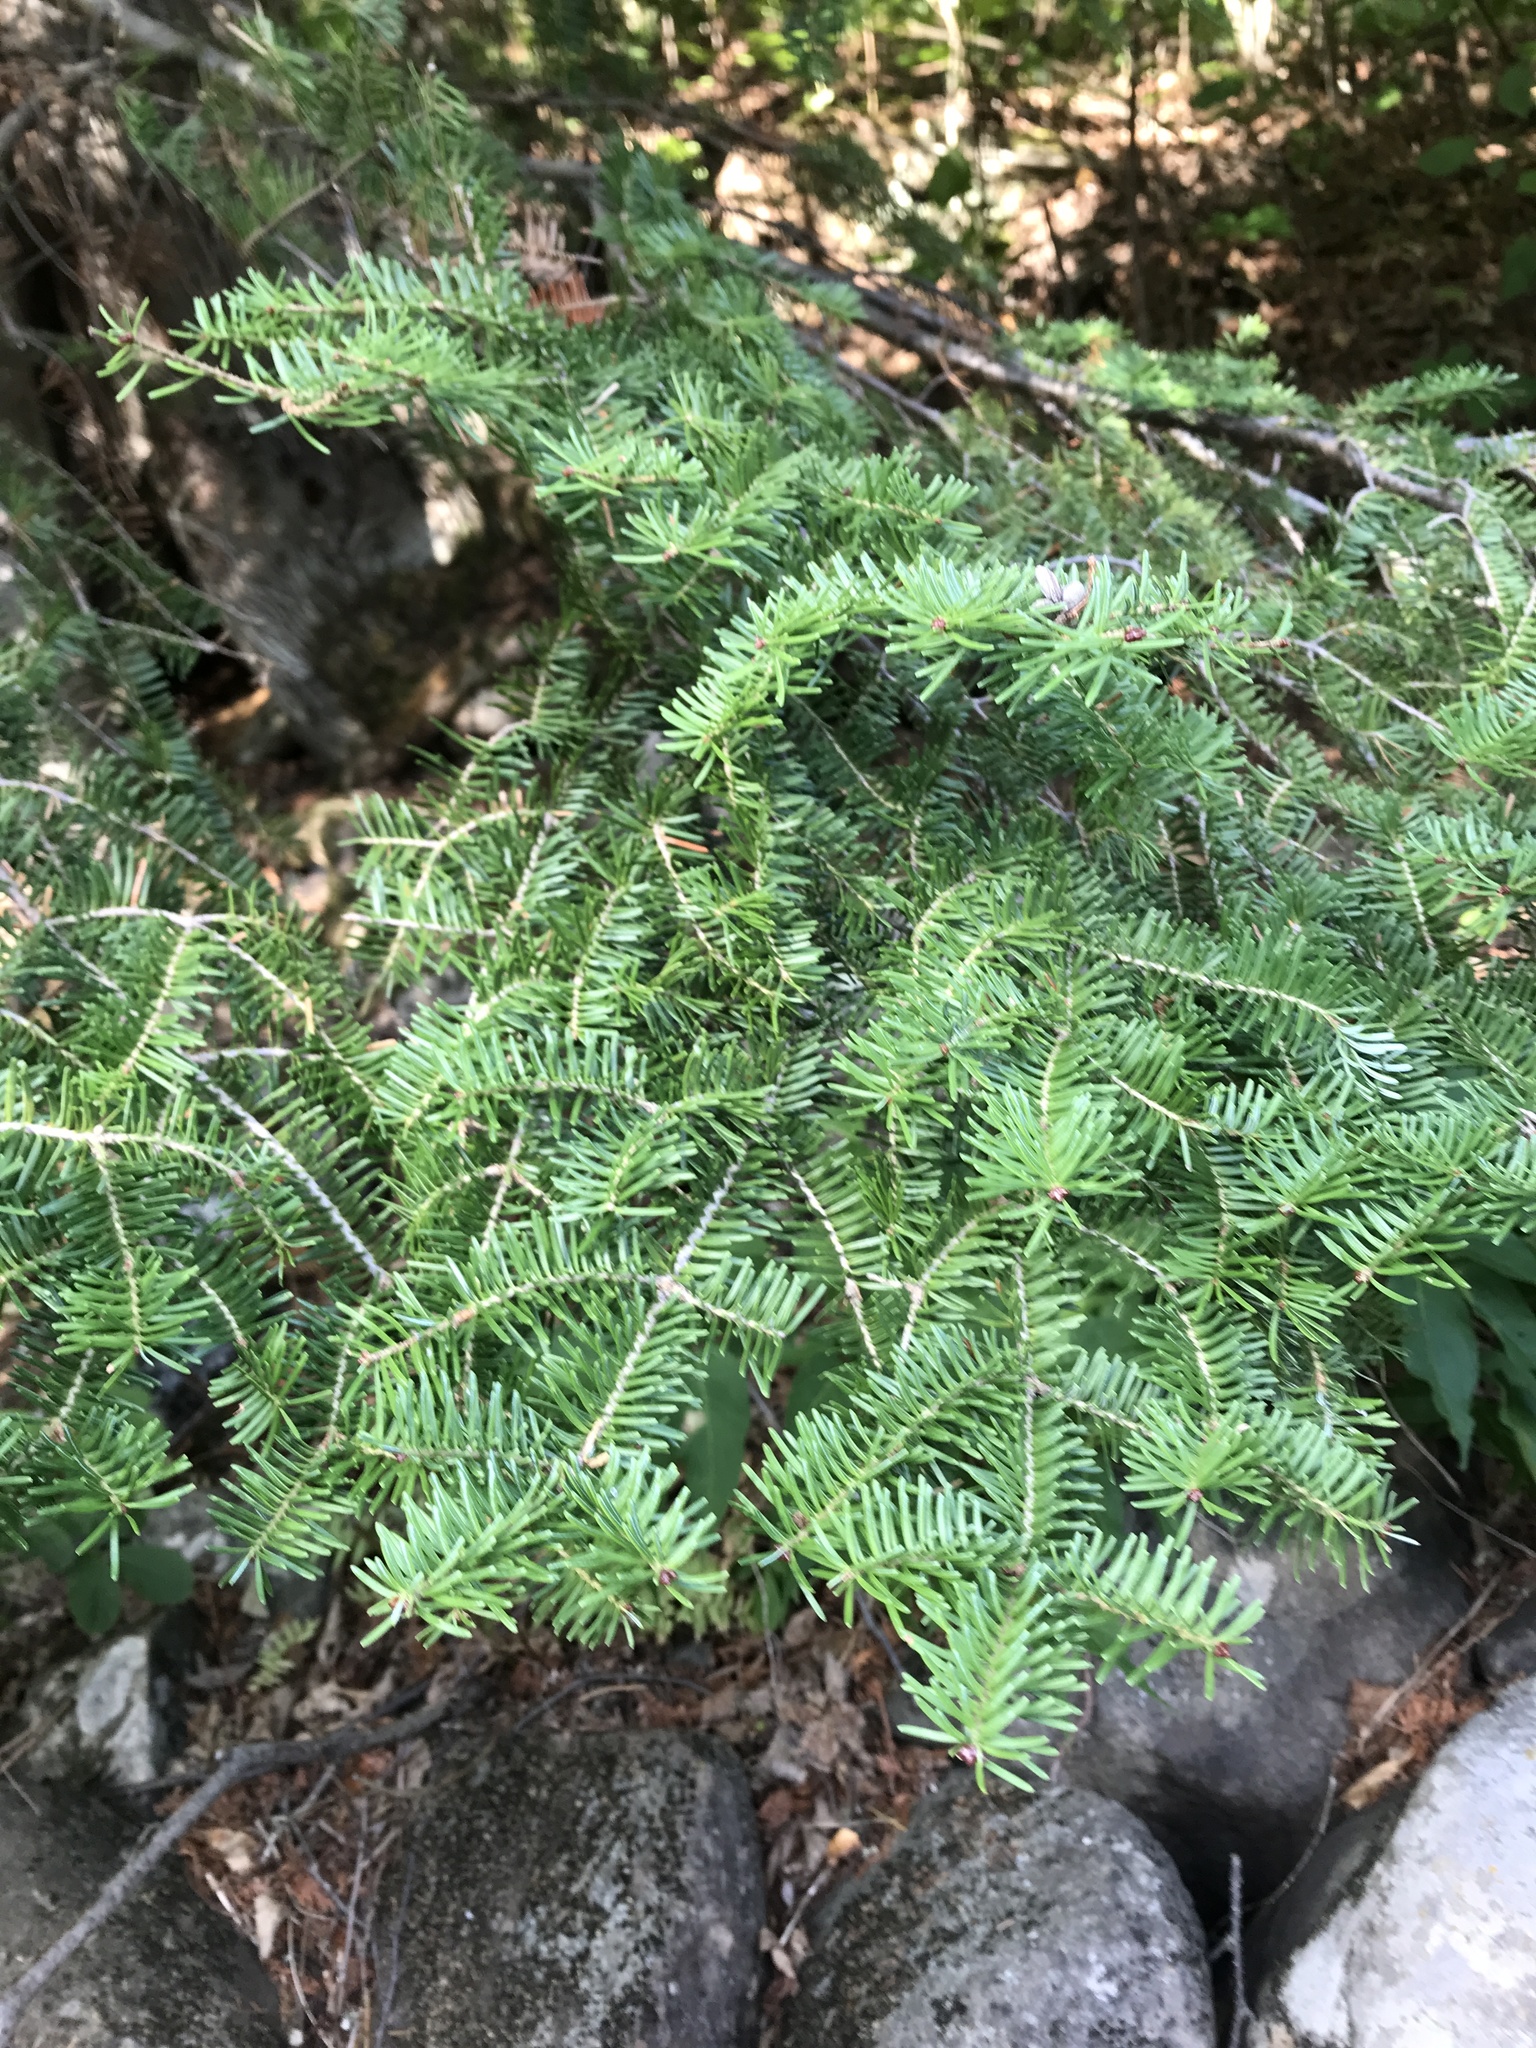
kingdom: Plantae
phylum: Tracheophyta
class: Pinopsida
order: Pinales
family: Pinaceae
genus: Abies
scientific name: Abies balsamea
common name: Balsam fir
